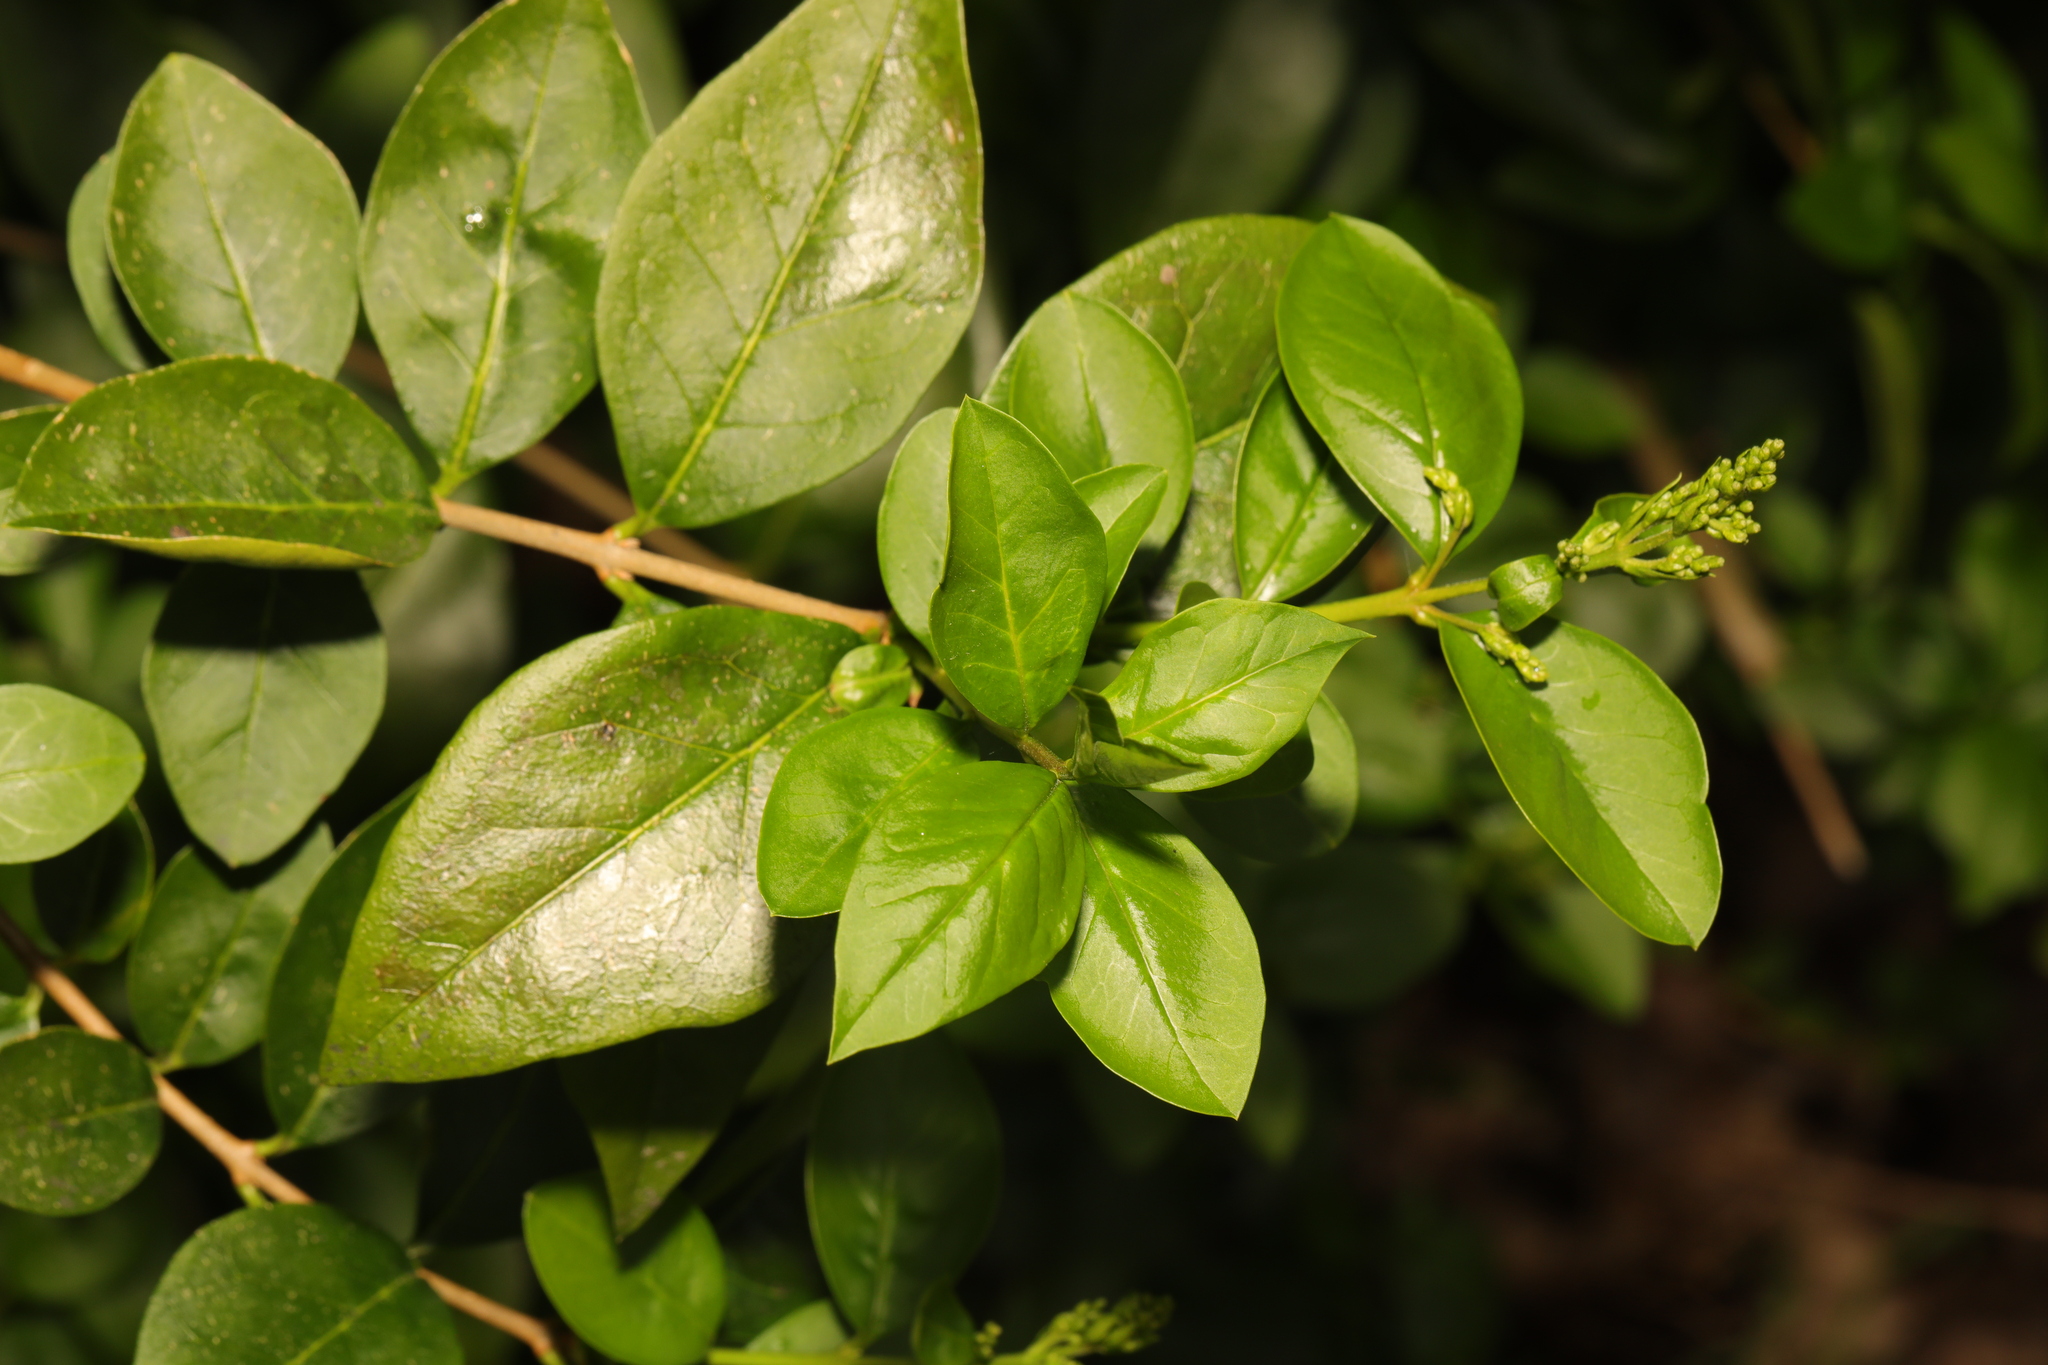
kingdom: Plantae
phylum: Tracheophyta
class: Magnoliopsida
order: Lamiales
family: Oleaceae
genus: Ligustrum
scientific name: Ligustrum ovalifolium
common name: California privet
